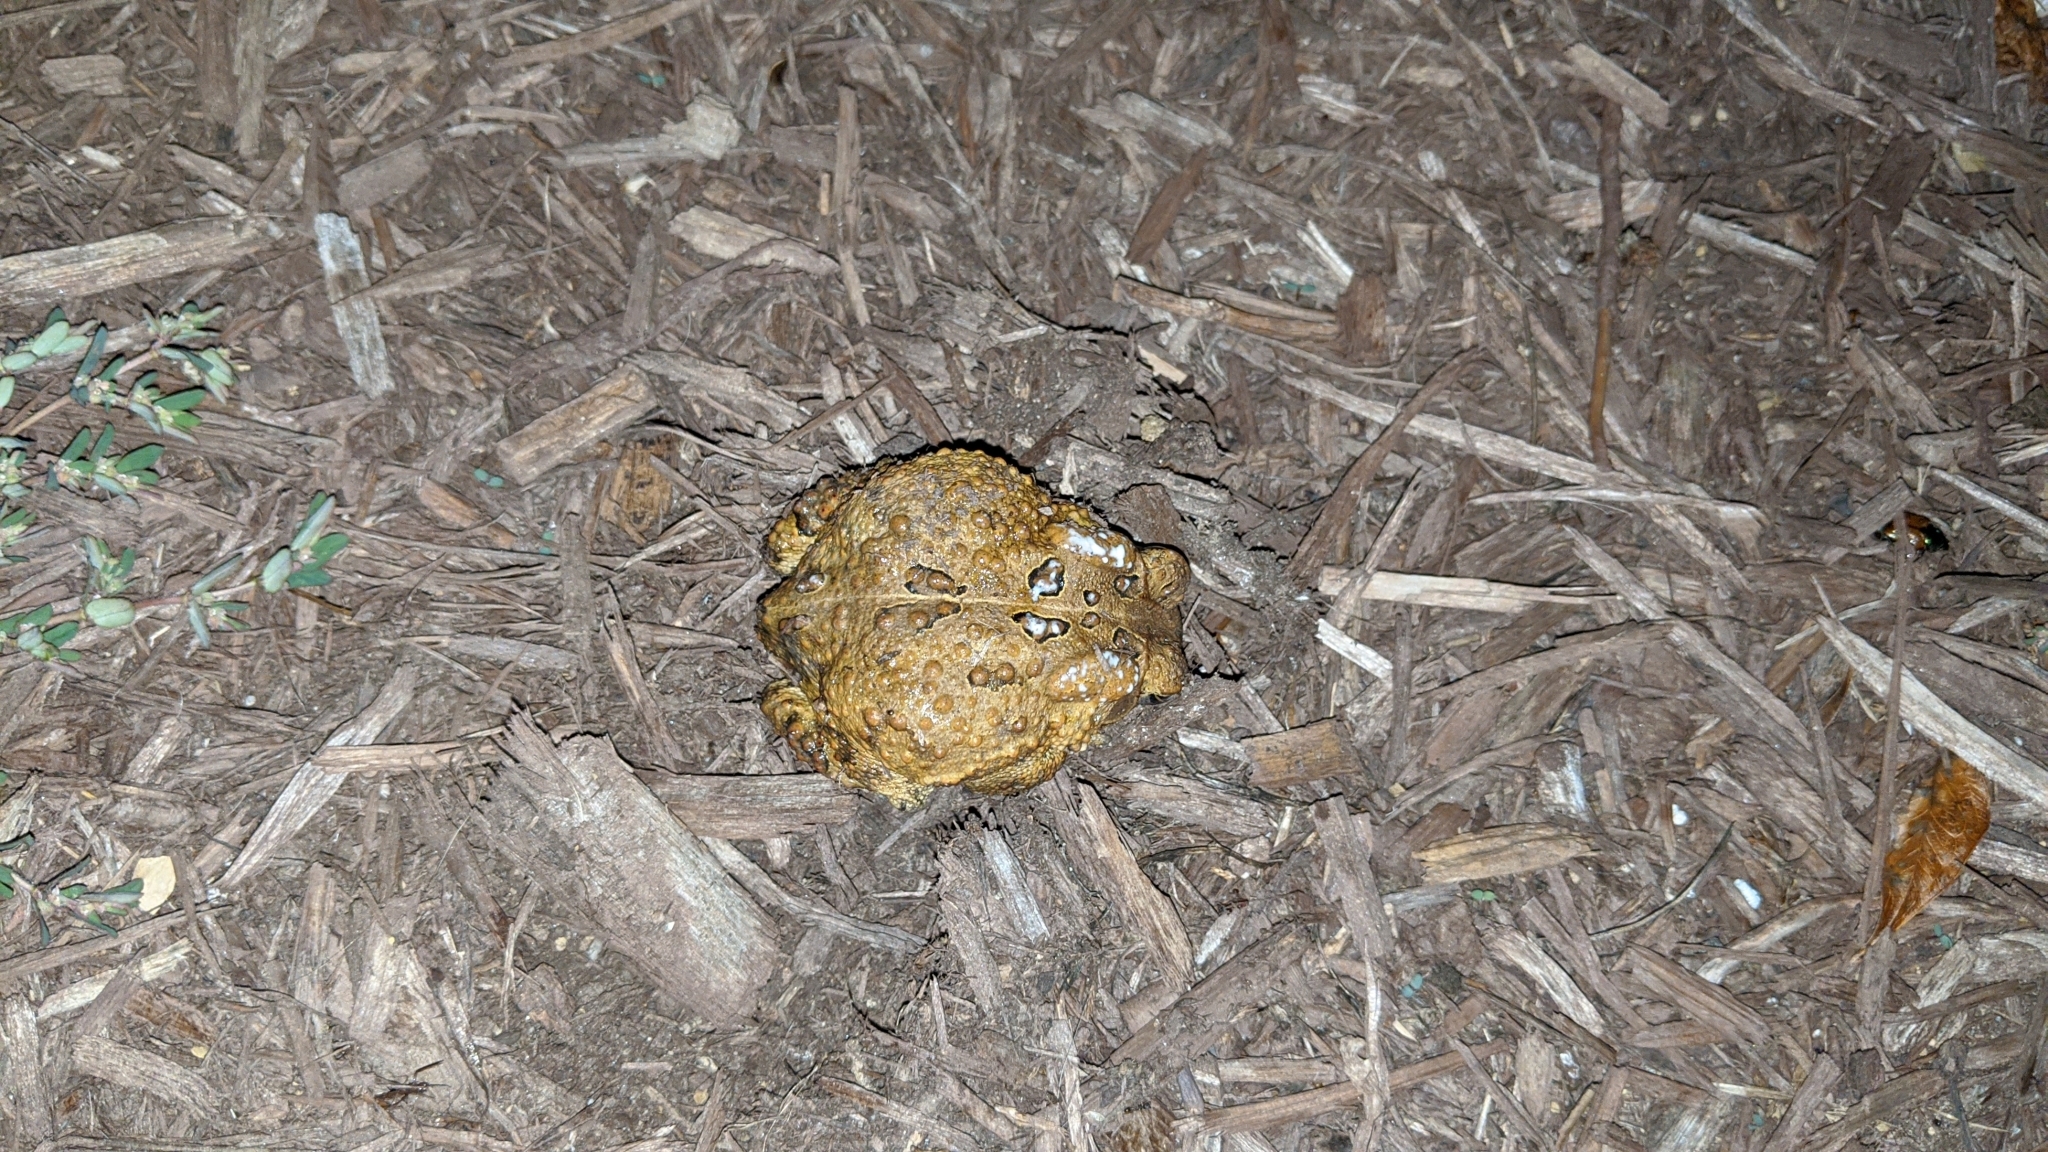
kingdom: Animalia
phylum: Chordata
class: Amphibia
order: Anura
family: Bufonidae
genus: Anaxyrus
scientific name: Anaxyrus americanus
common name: American toad
